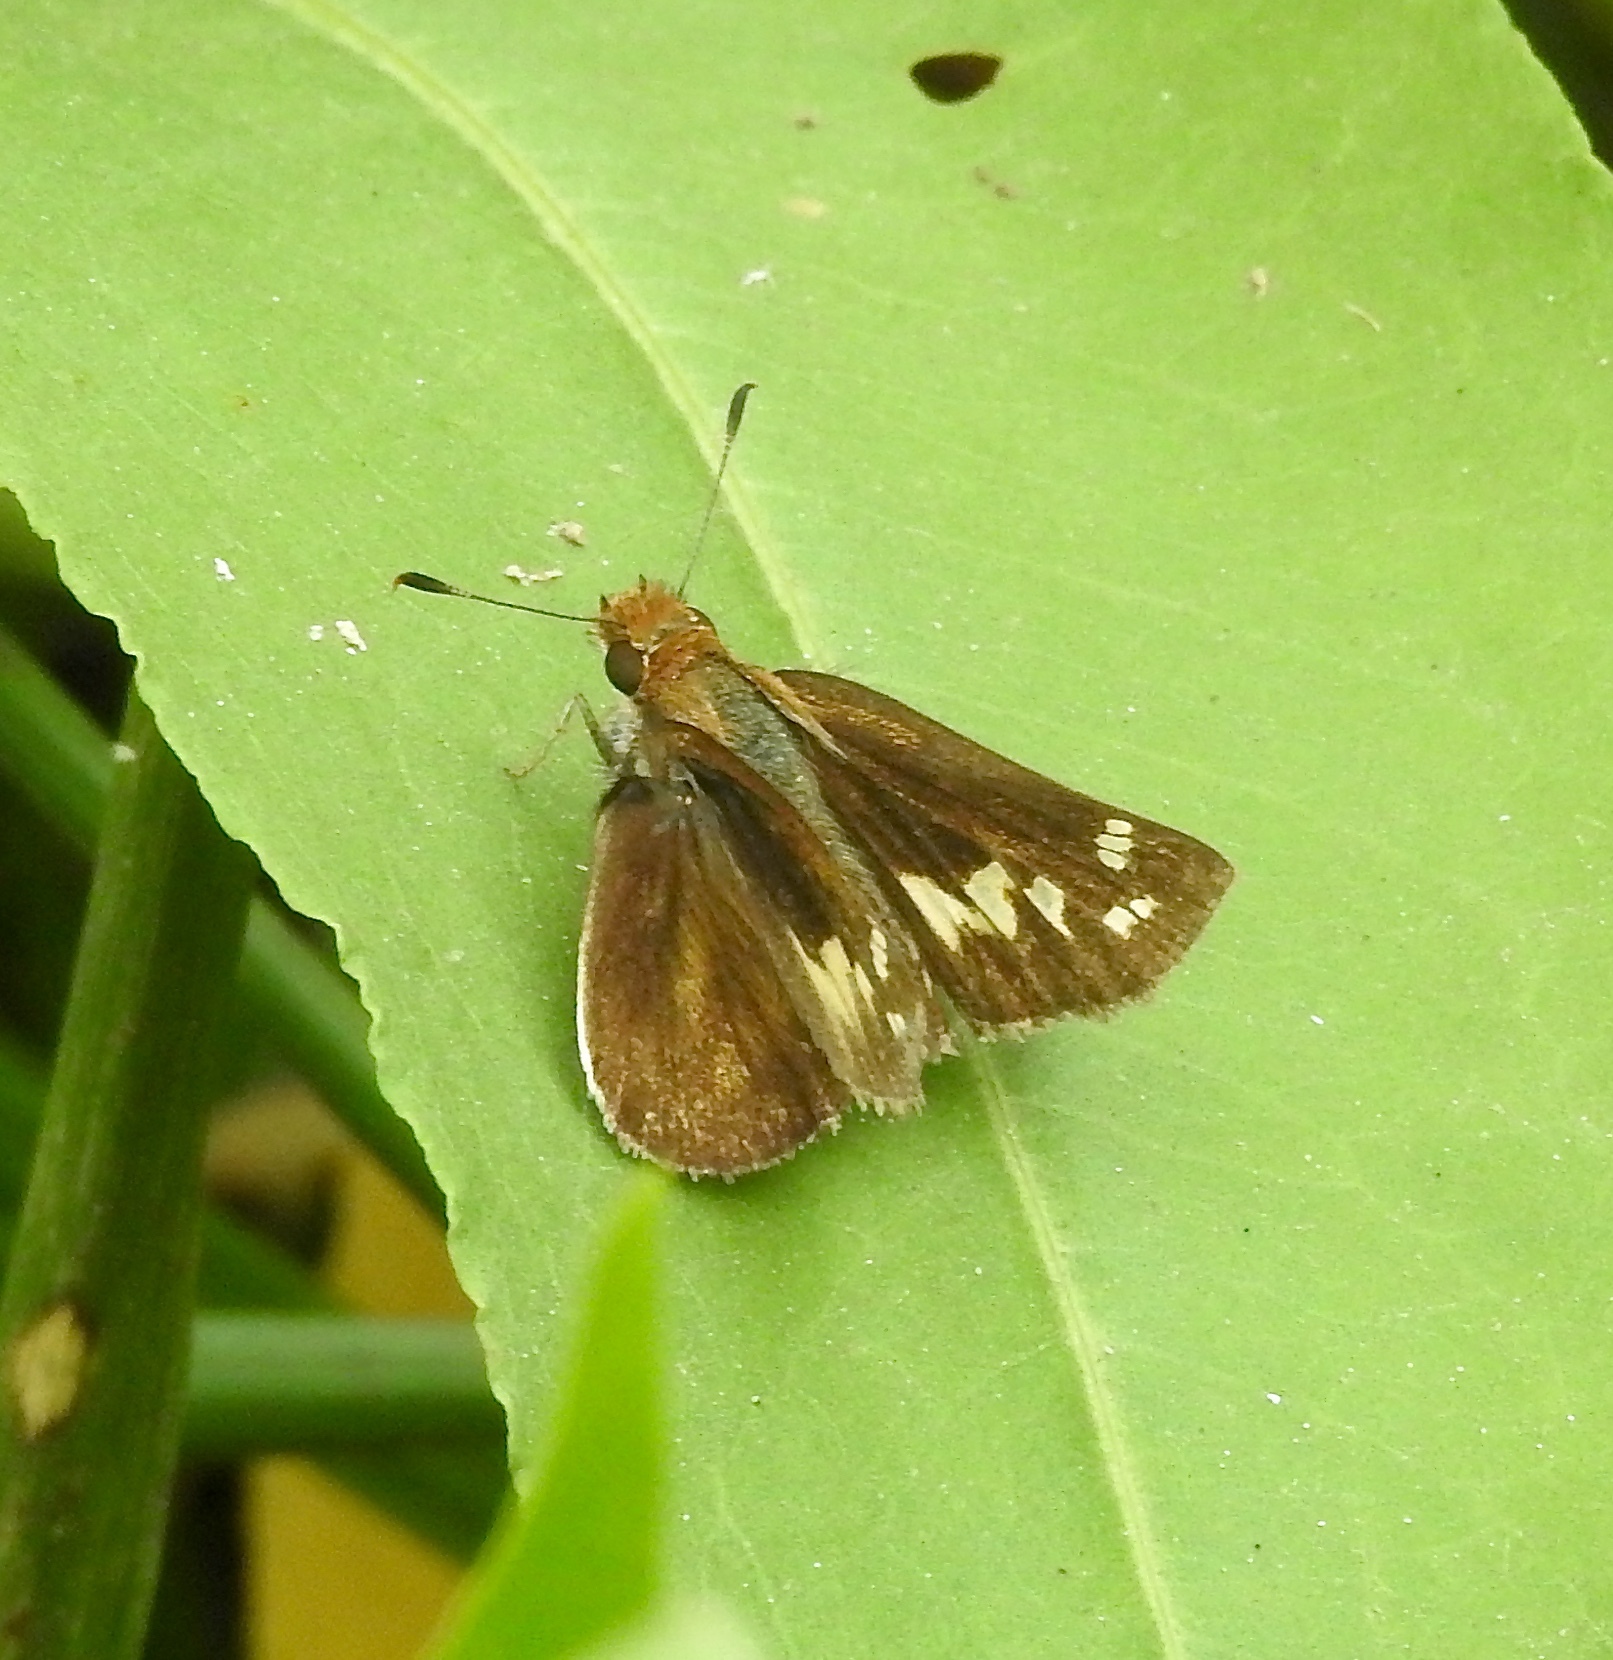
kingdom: Animalia
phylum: Arthropoda
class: Insecta
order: Lepidoptera
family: Hesperiidae
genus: Lon
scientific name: Lon zabulon
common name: Zabulon skipper
